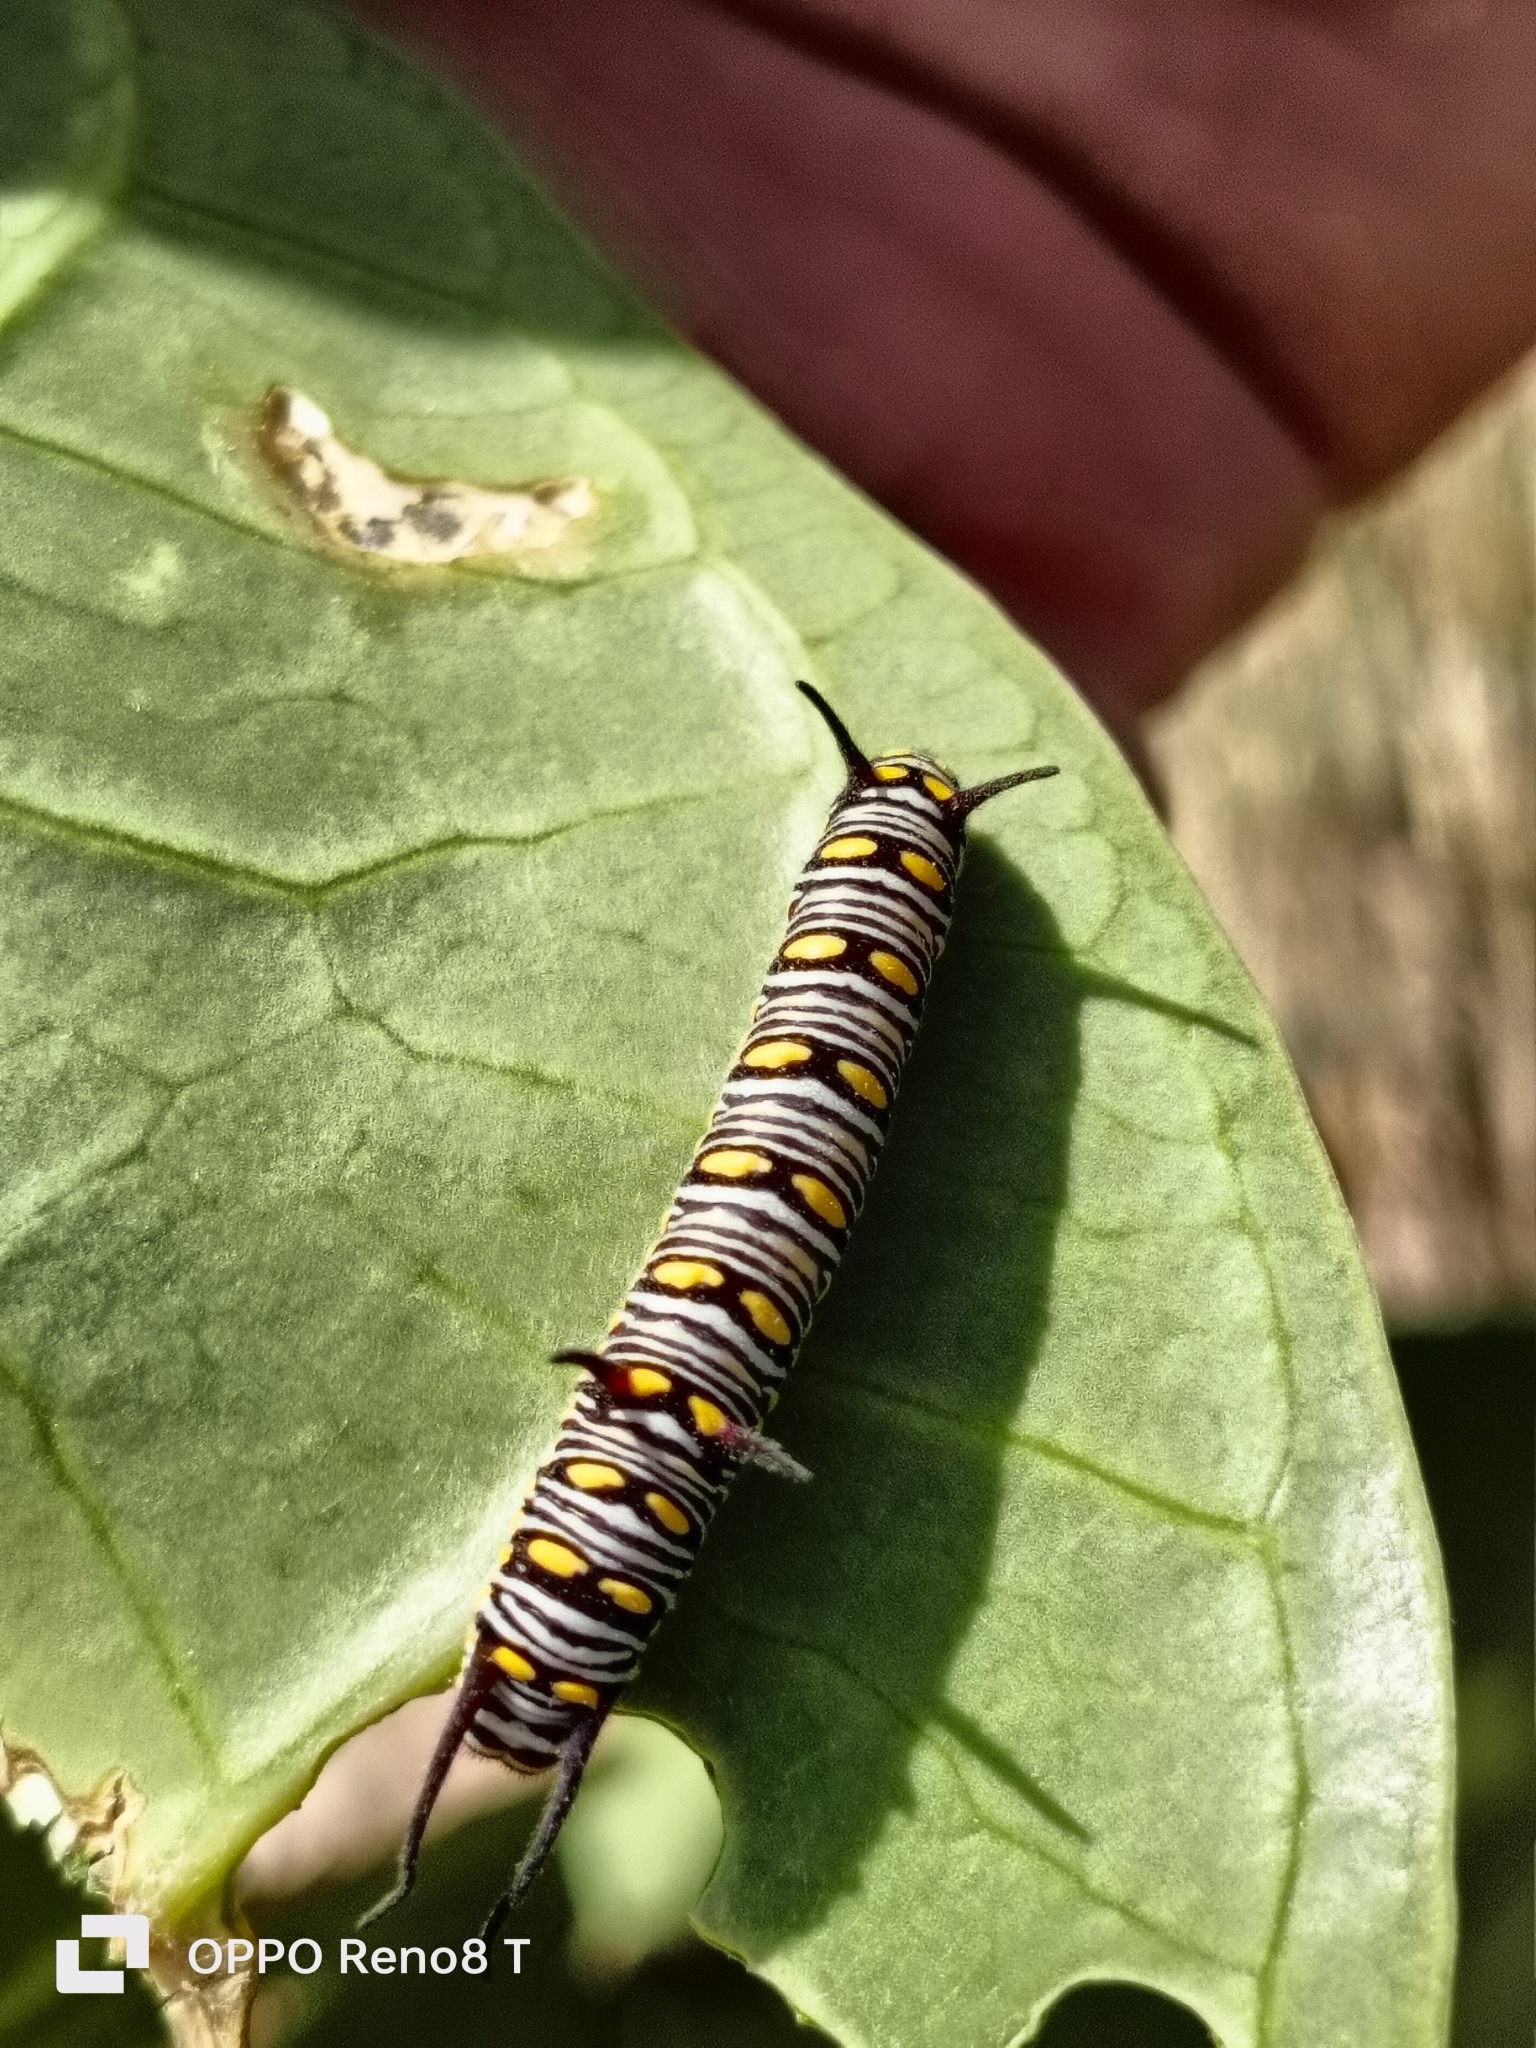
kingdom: Animalia
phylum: Arthropoda
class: Insecta
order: Lepidoptera
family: Nymphalidae
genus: Danaus
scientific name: Danaus chrysippus
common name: Plain tiger
